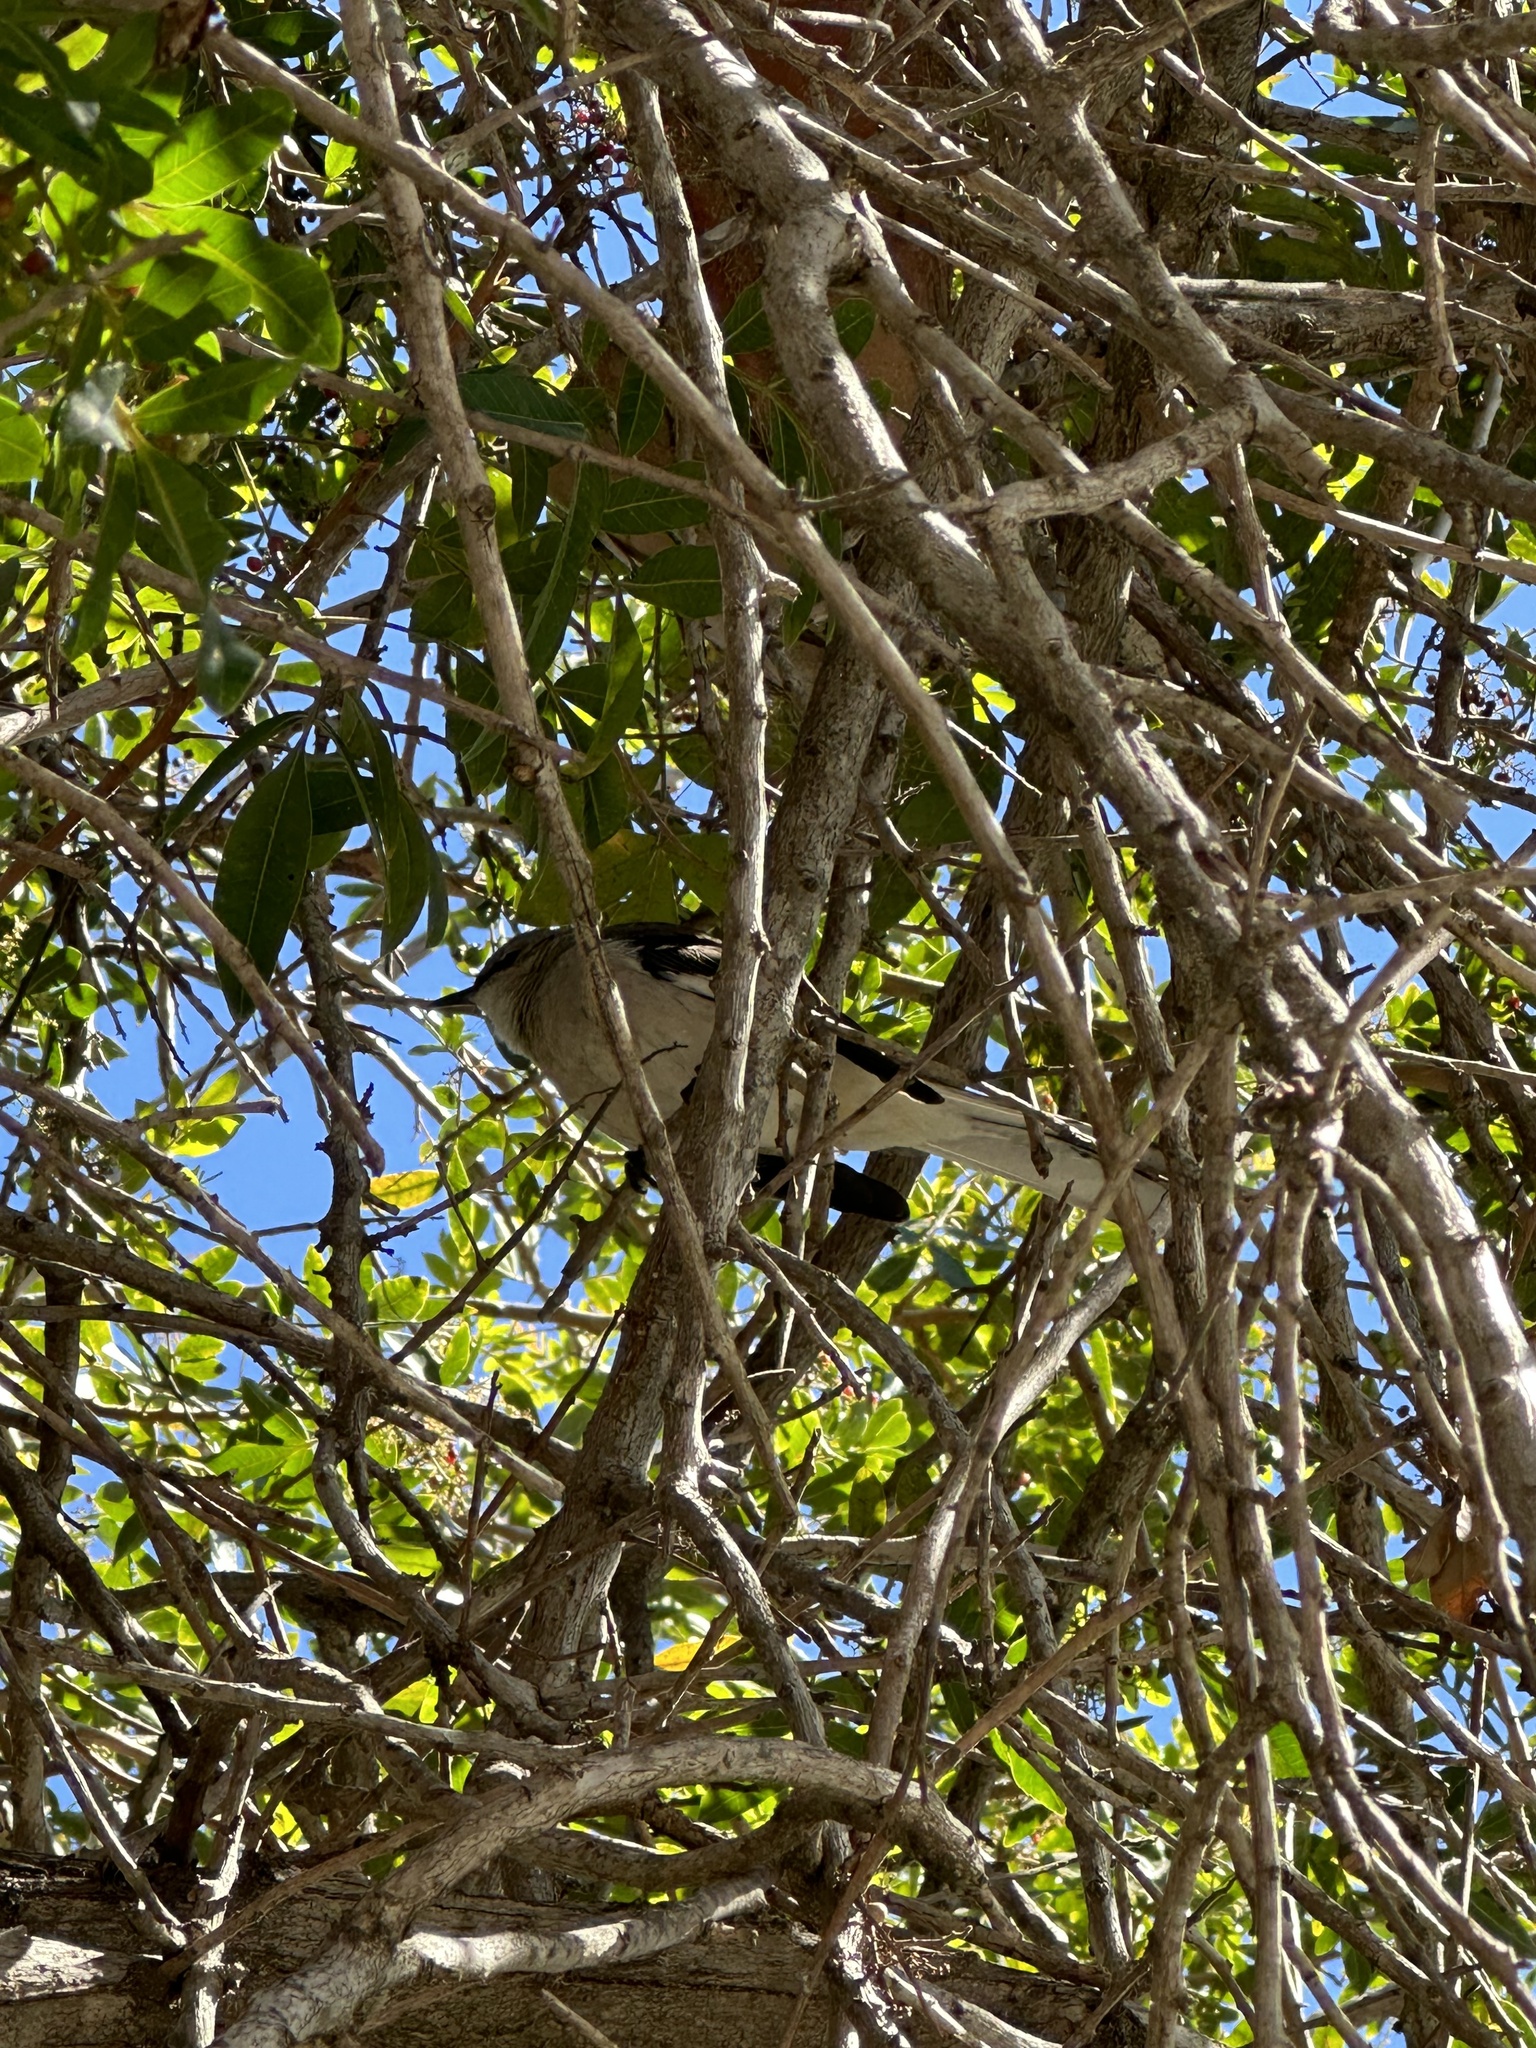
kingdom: Animalia
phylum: Chordata
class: Aves
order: Passeriformes
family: Mimidae
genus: Mimus
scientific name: Mimus polyglottos
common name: Northern mockingbird
